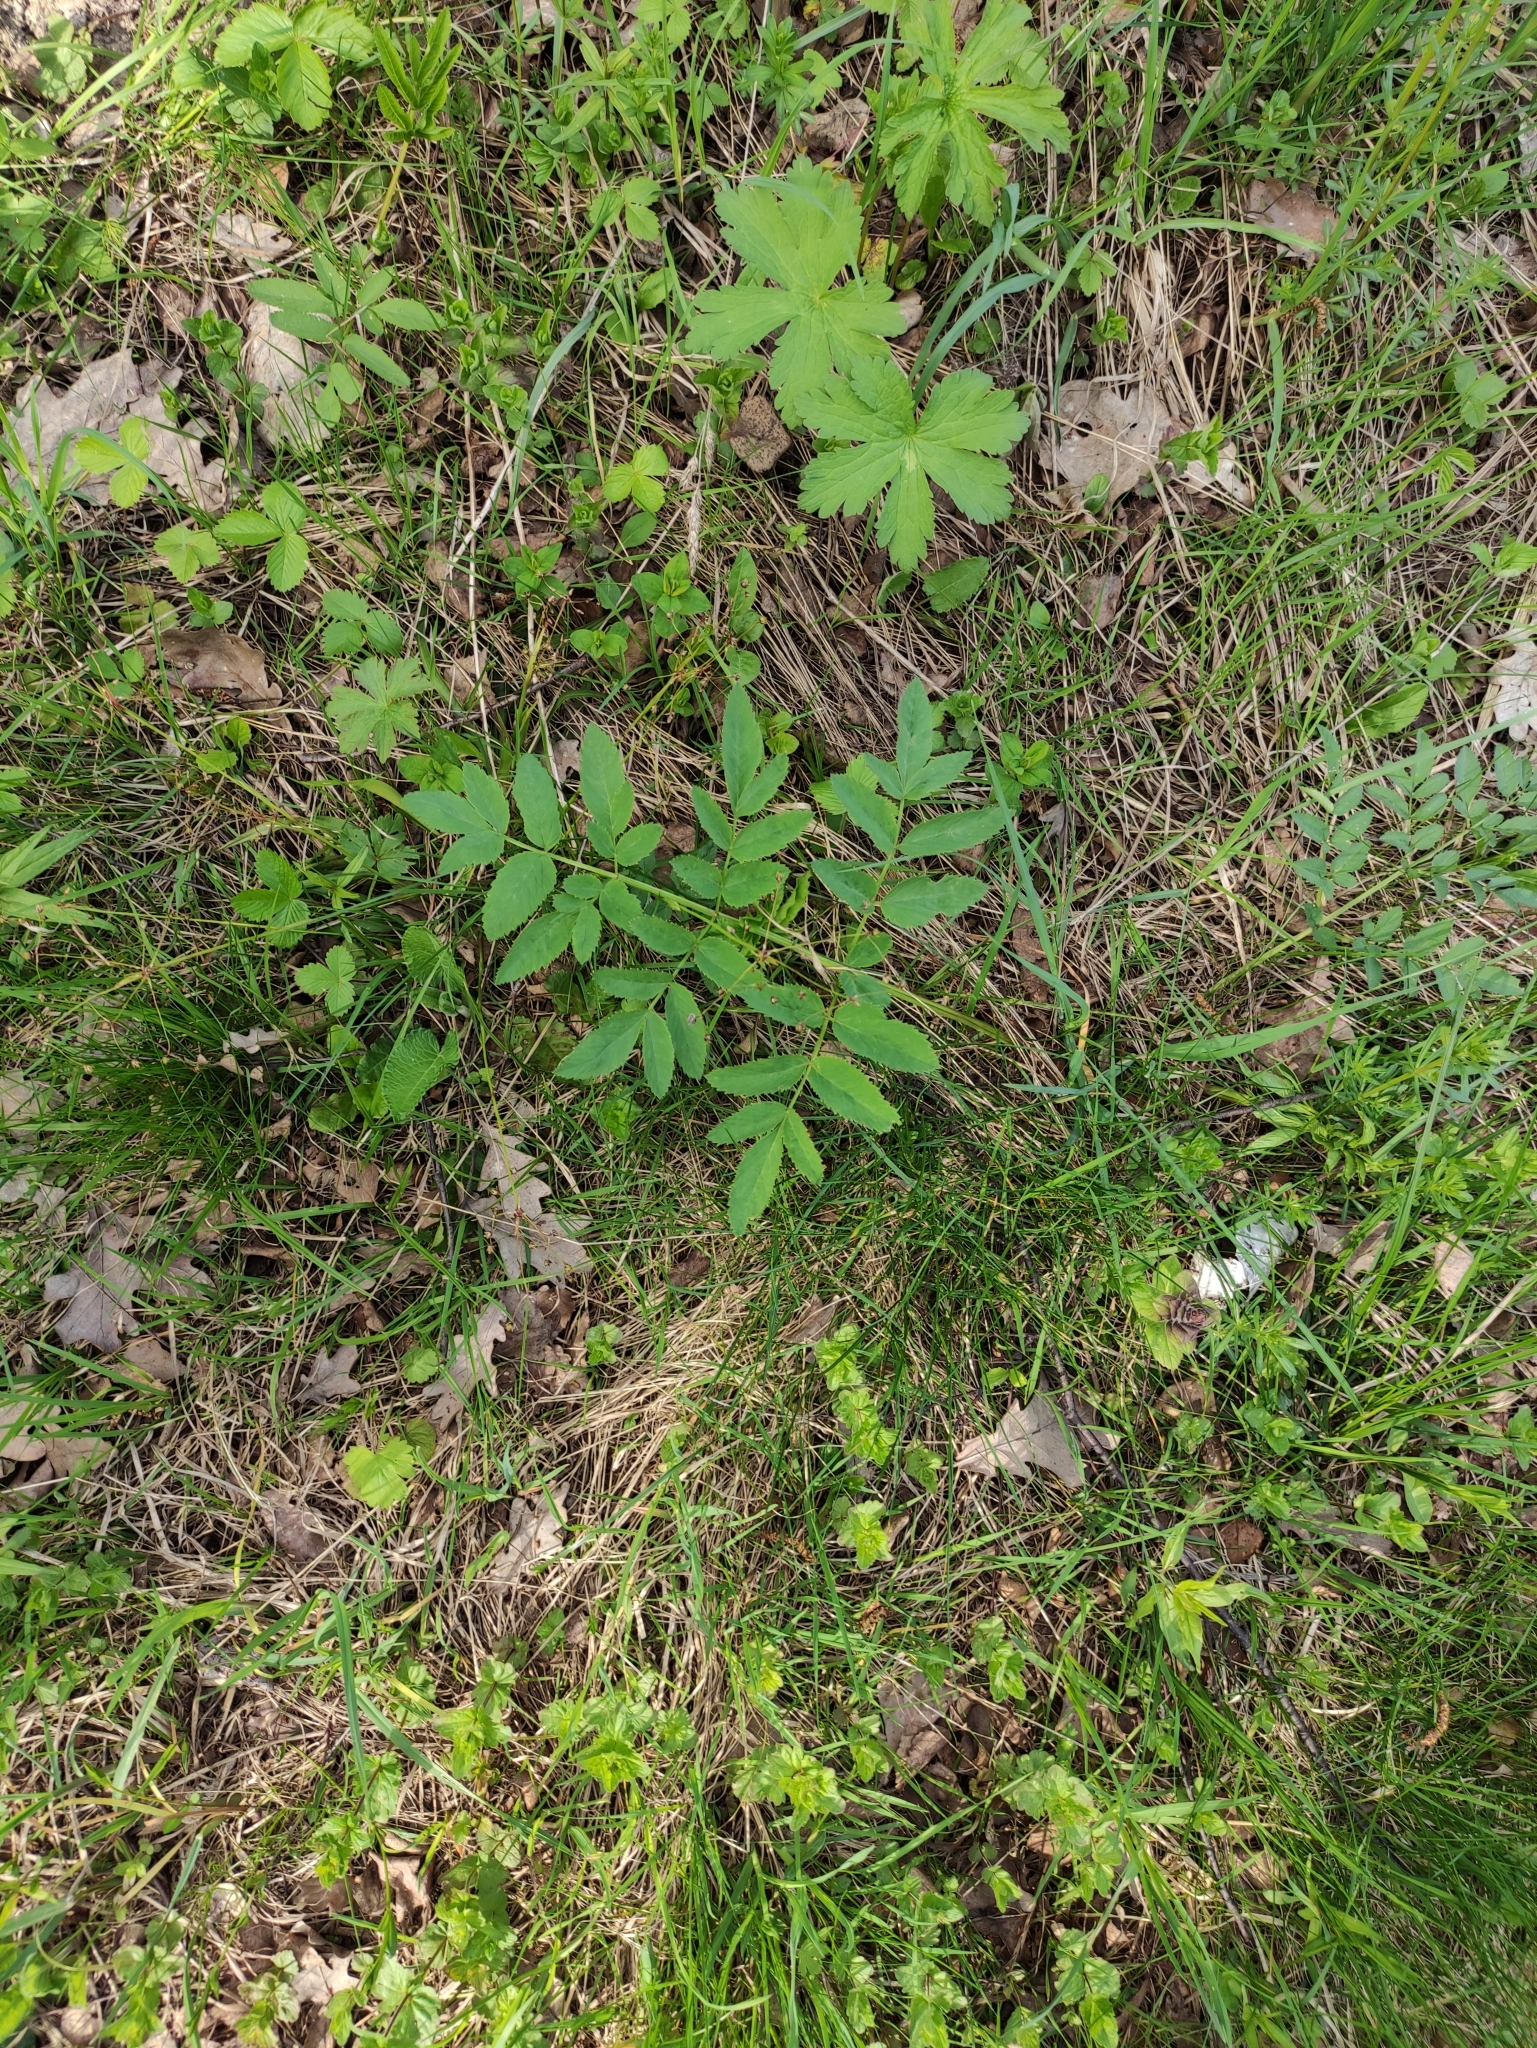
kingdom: Plantae
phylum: Tracheophyta
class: Magnoliopsida
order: Apiales
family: Apiaceae
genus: Angelica
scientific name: Angelica sylvestris
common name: Wild angelica
